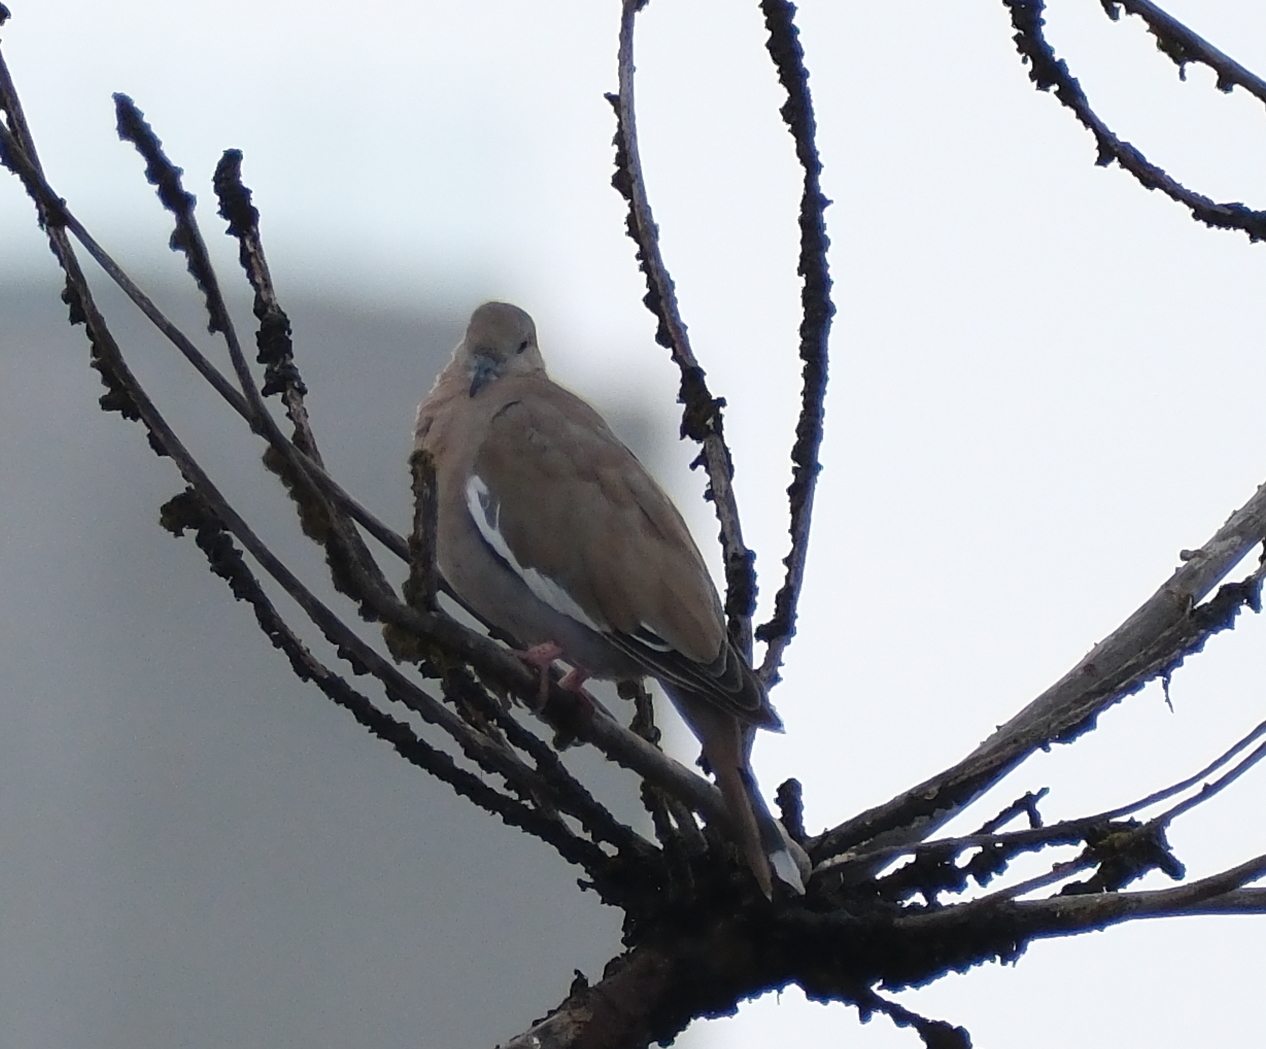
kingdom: Animalia
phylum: Chordata
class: Aves
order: Columbiformes
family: Columbidae
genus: Zenaida
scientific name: Zenaida meloda
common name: West peruvian dove
